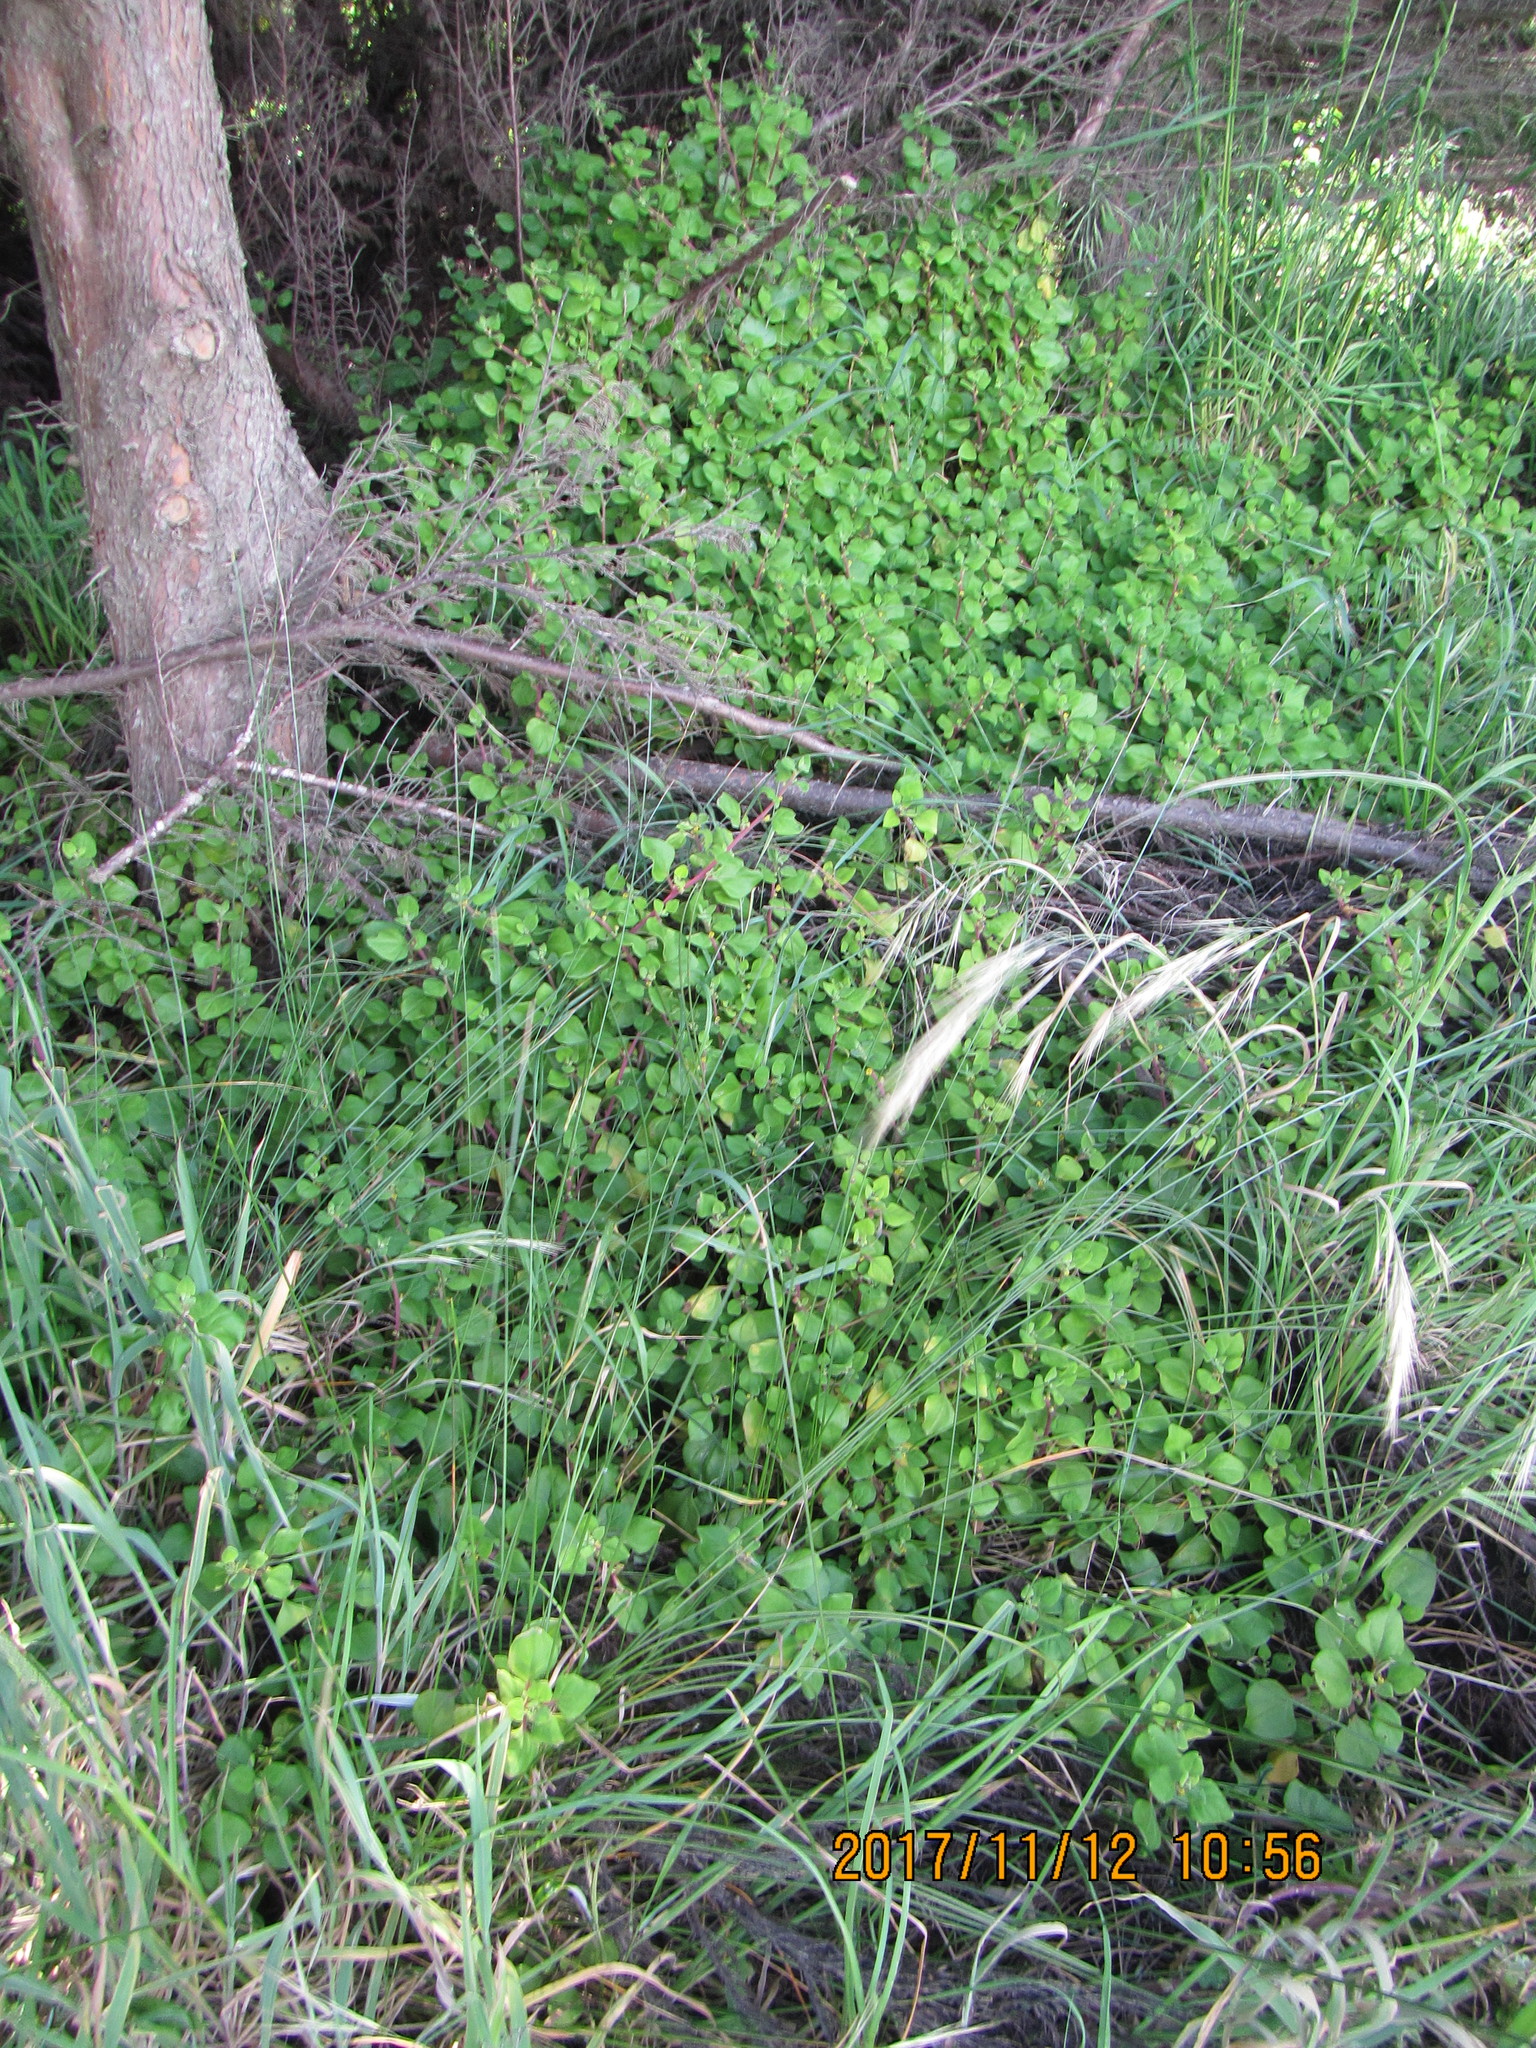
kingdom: Plantae
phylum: Tracheophyta
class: Magnoliopsida
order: Caryophyllales
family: Aizoaceae
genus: Tetragonia
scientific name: Tetragonia implexicoma
